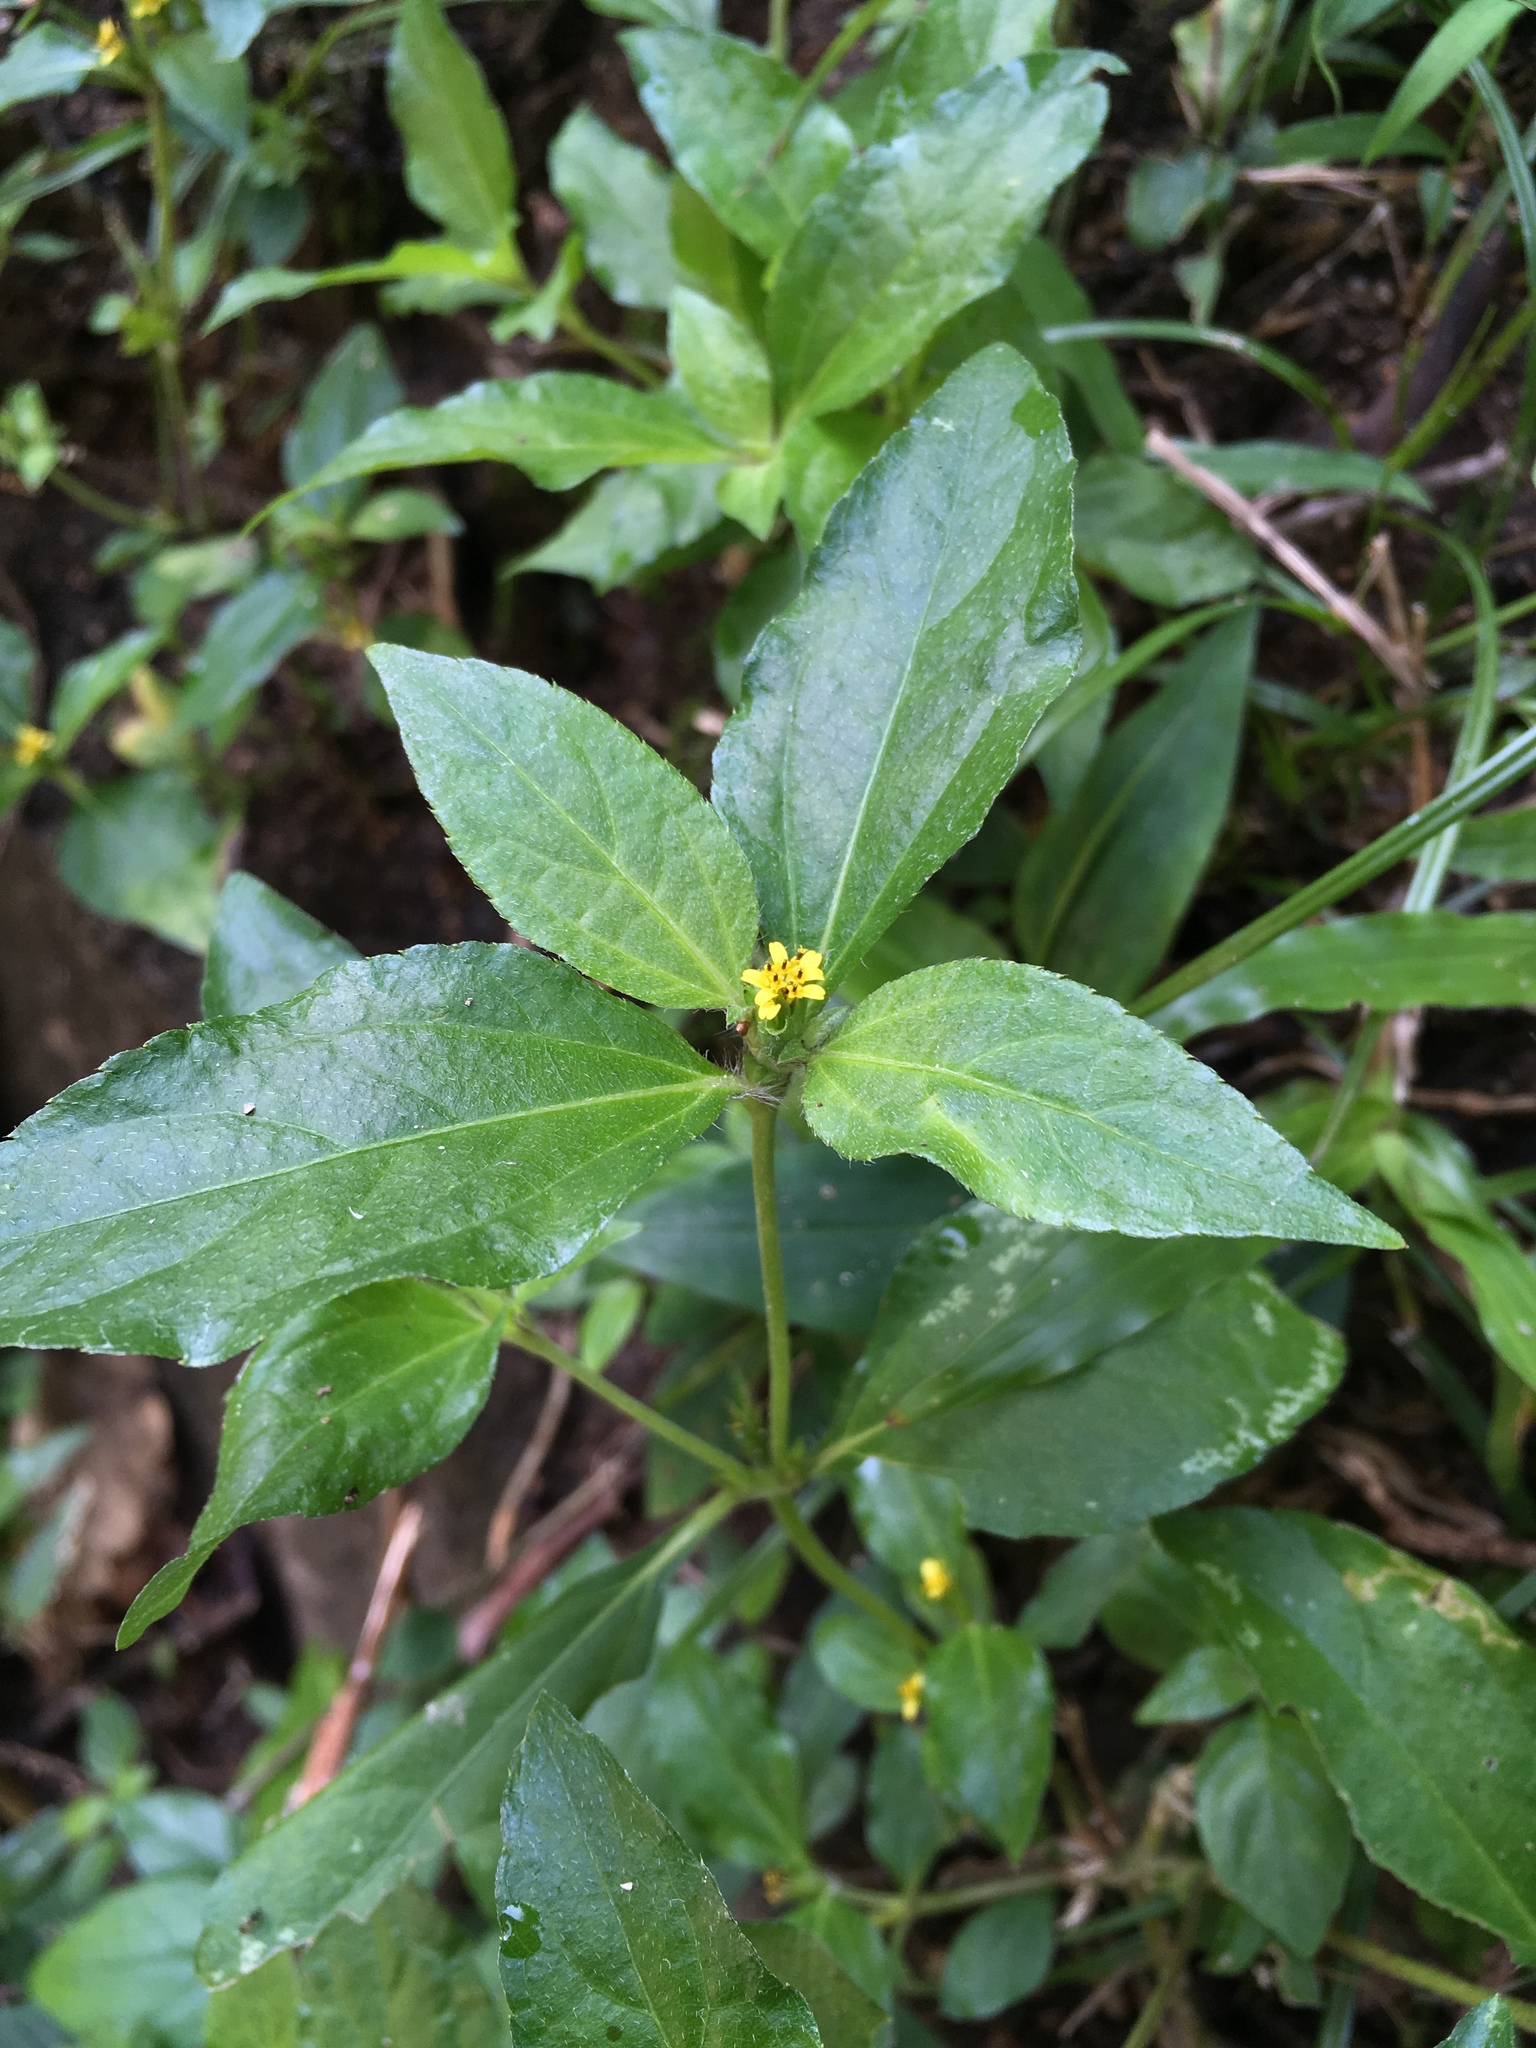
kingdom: Plantae
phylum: Tracheophyta
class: Magnoliopsida
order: Asterales
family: Asteraceae
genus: Synedrella
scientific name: Synedrella nodiflora
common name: Nodeweed
